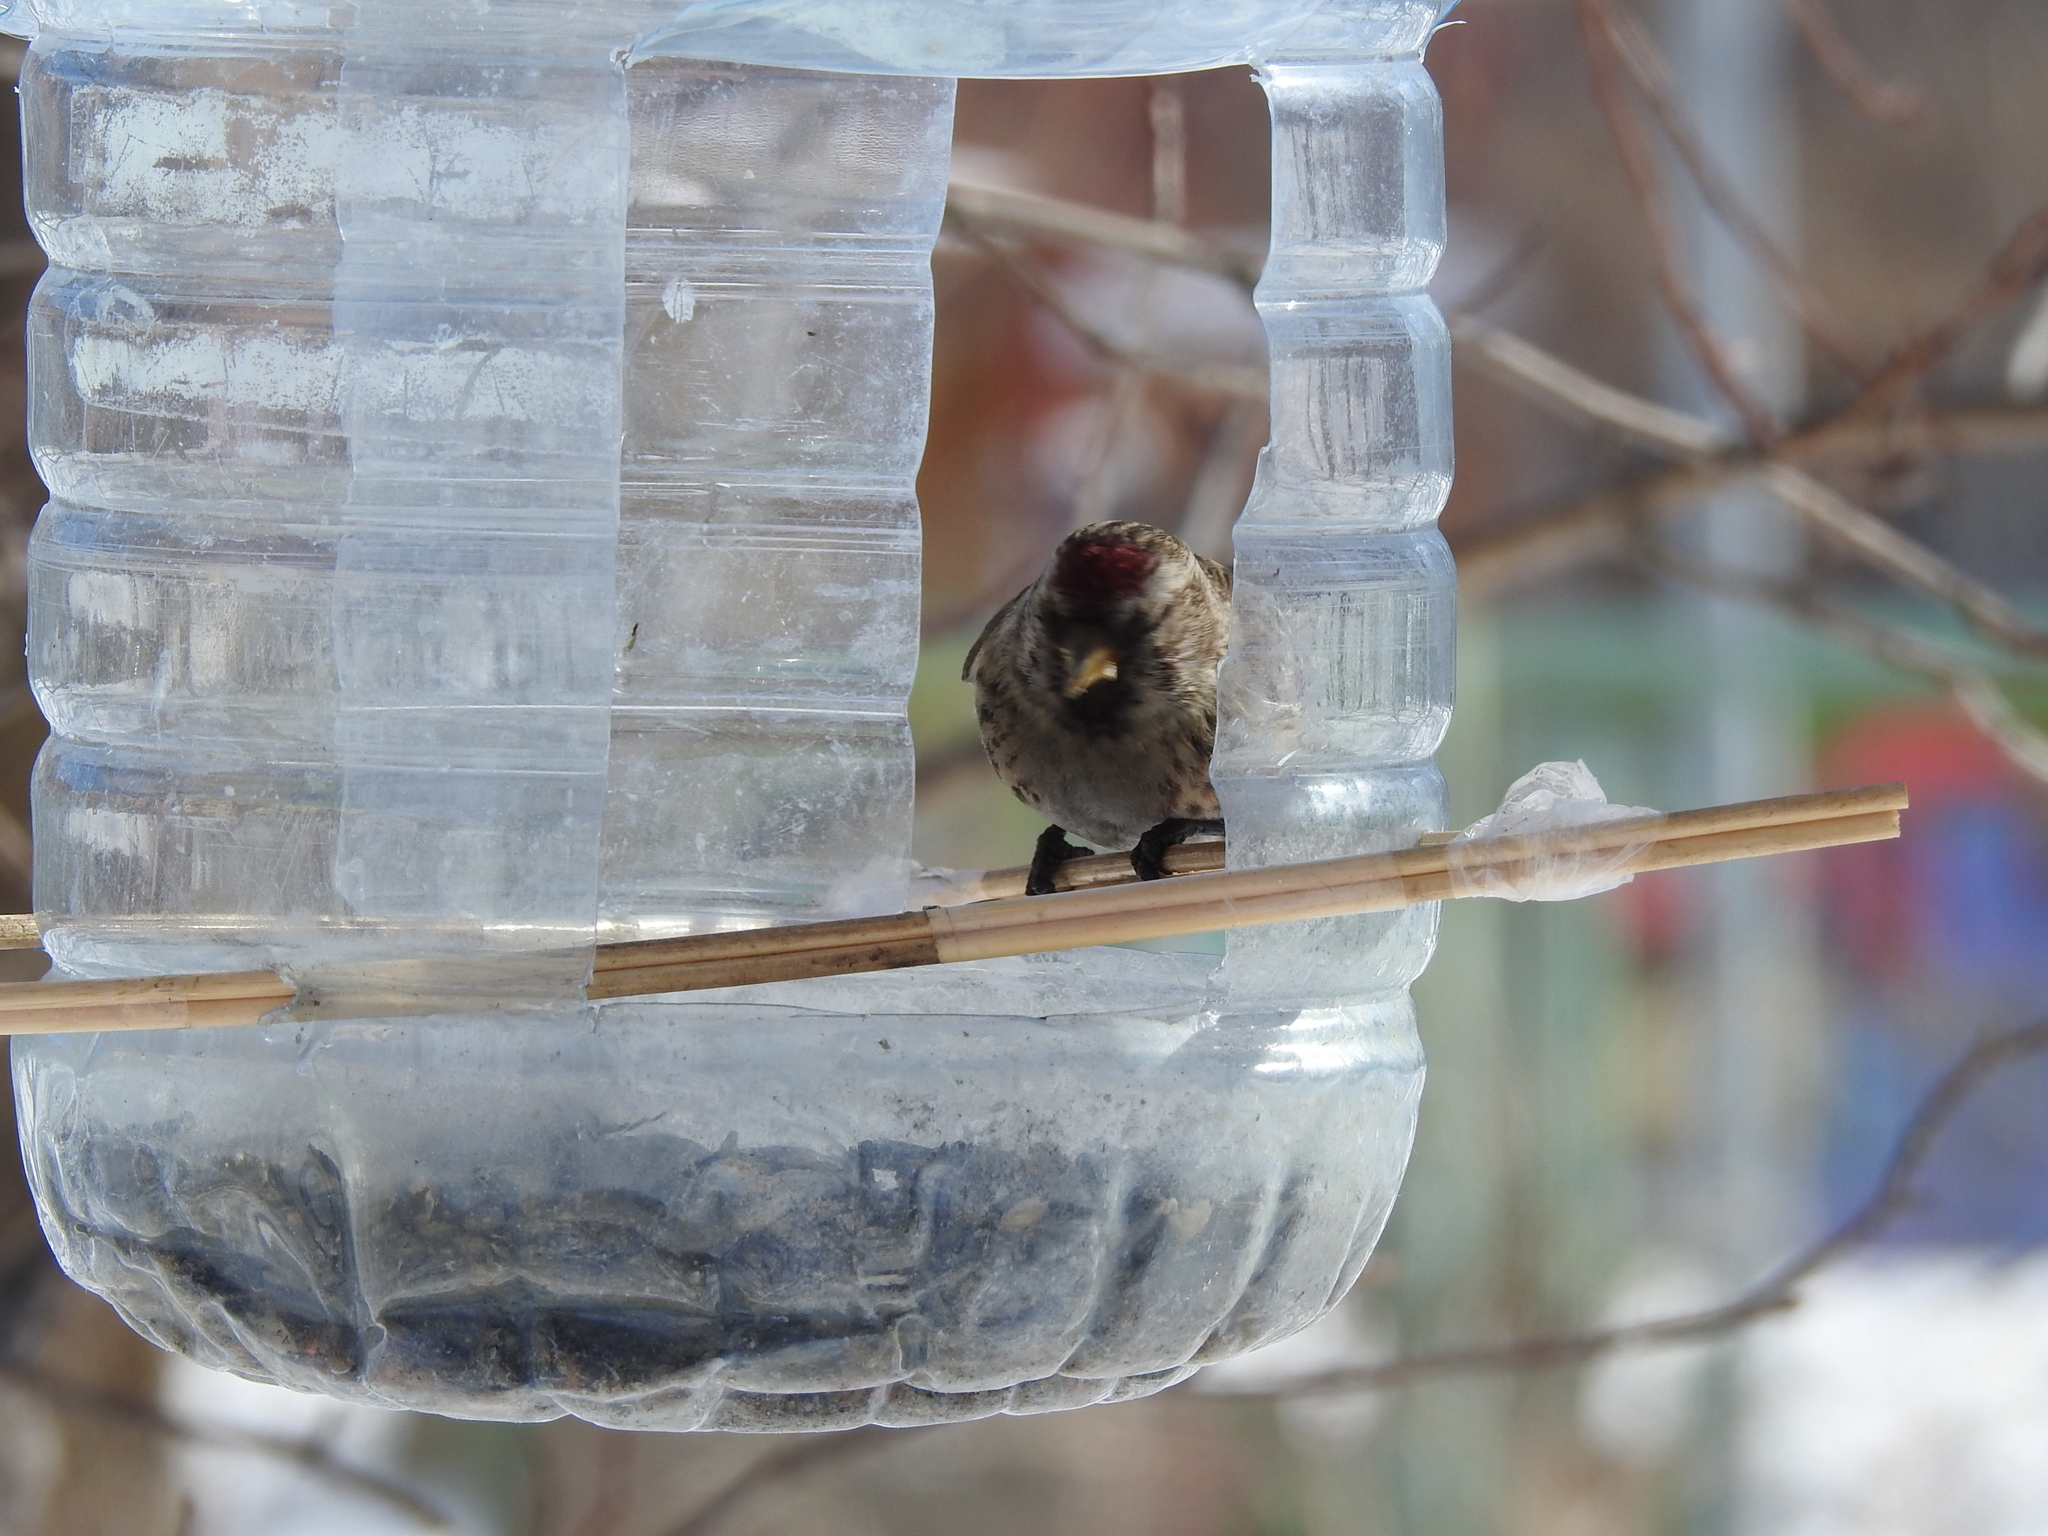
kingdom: Animalia
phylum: Chordata
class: Aves
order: Passeriformes
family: Fringillidae
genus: Acanthis
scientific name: Acanthis flammea
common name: Common redpoll
